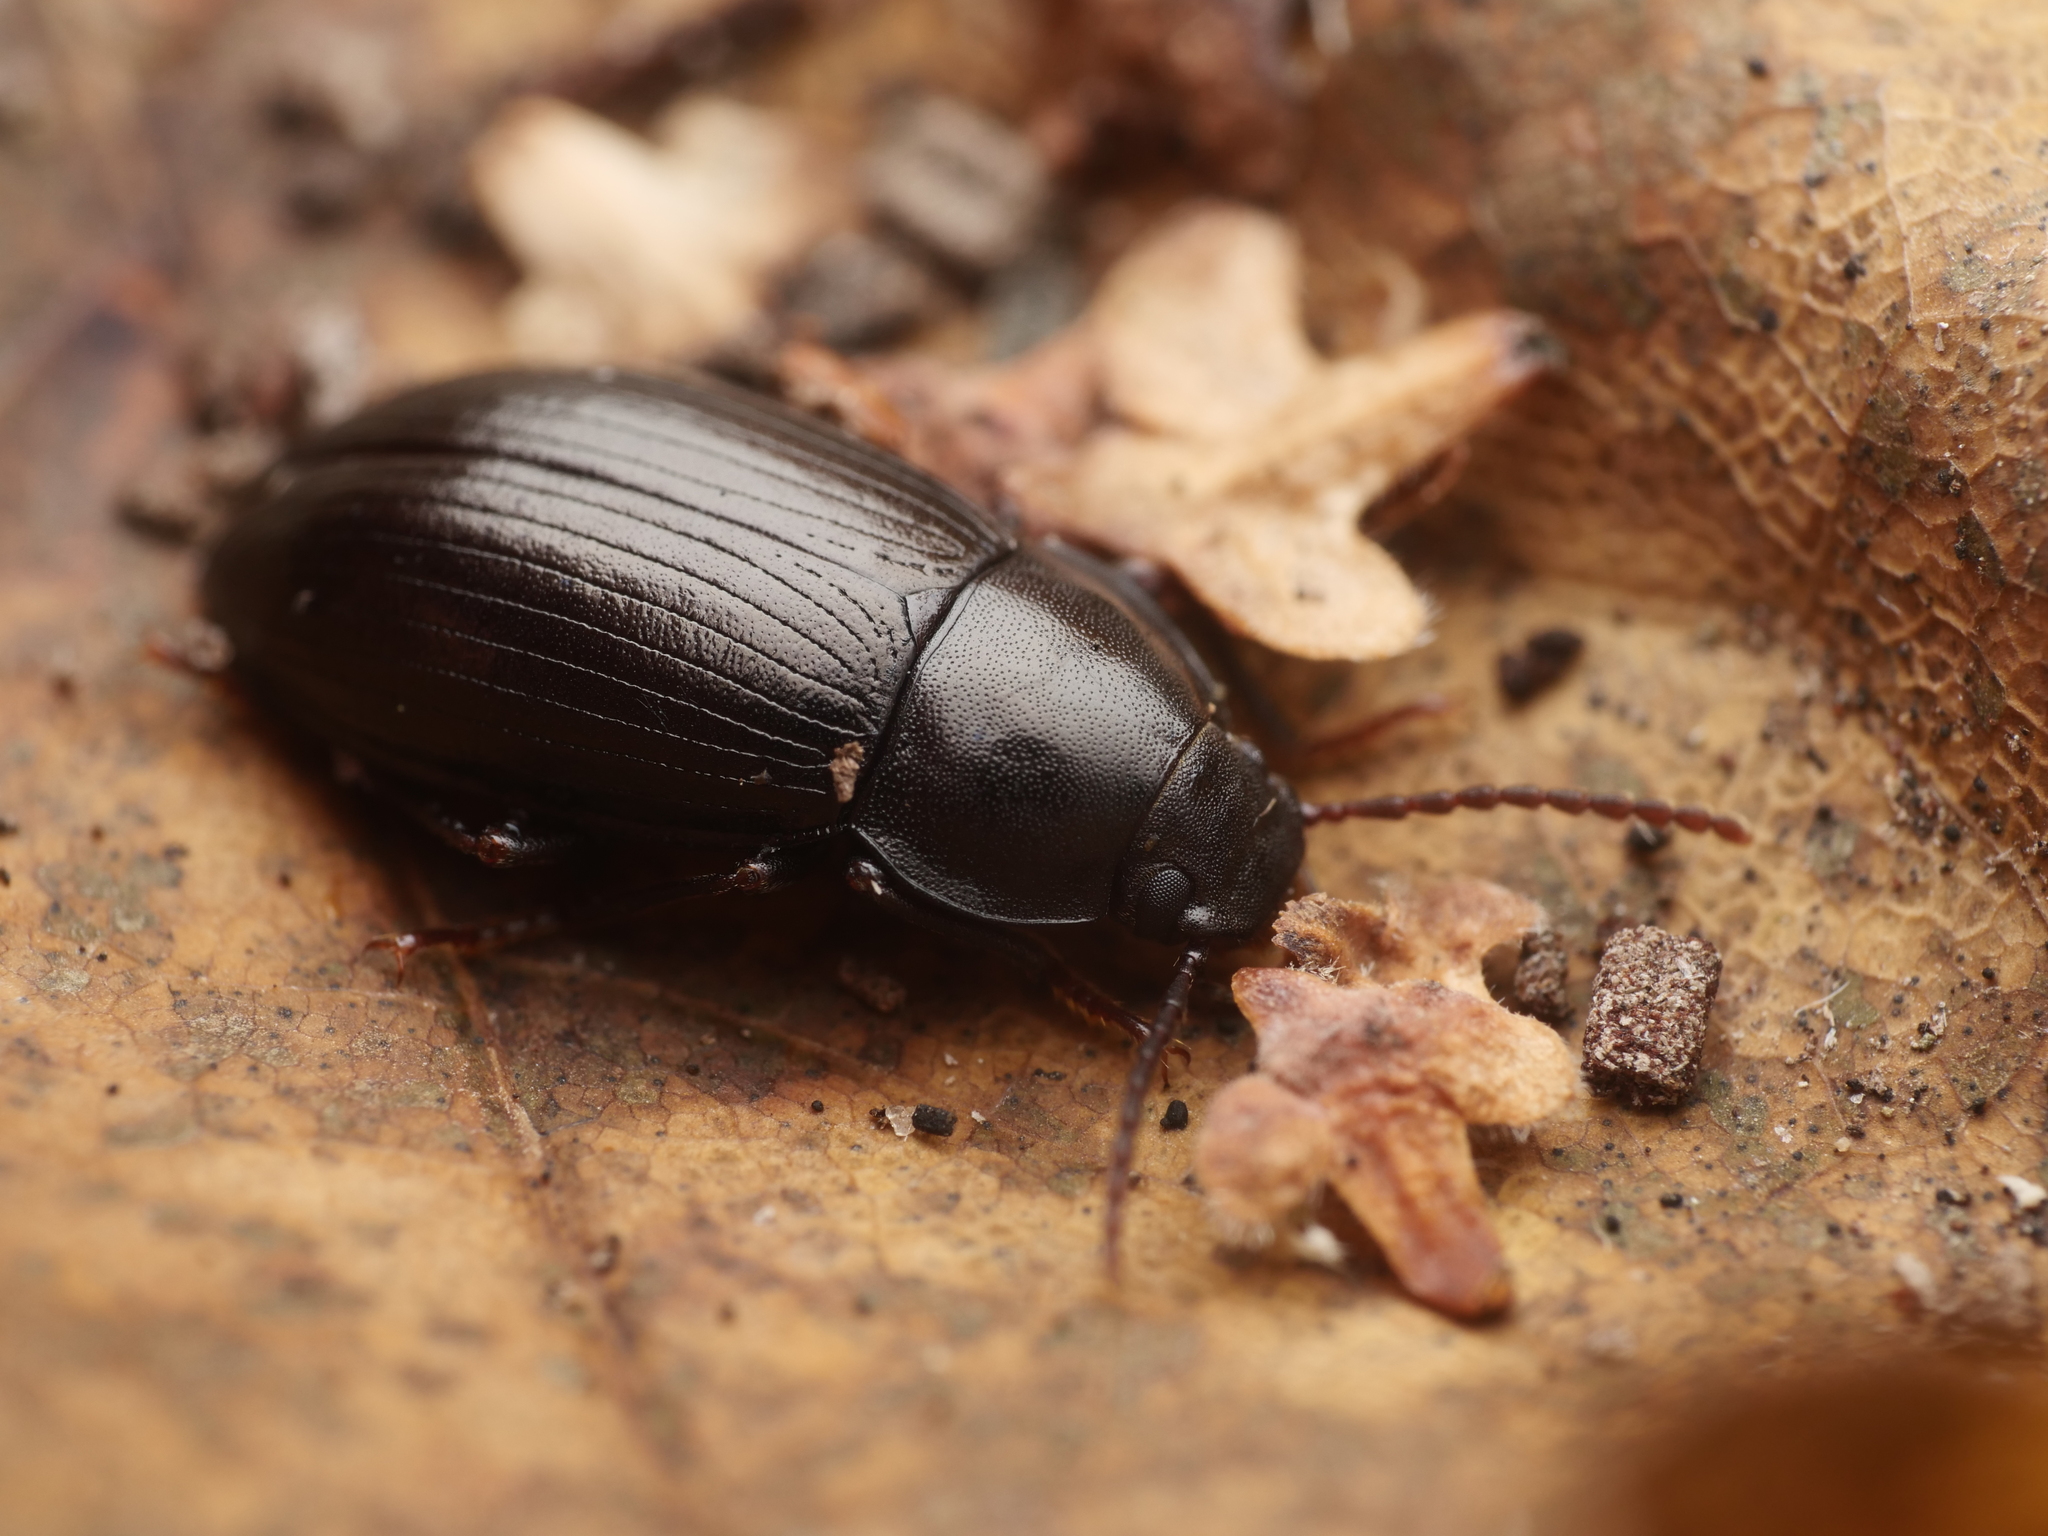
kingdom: Animalia
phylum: Arthropoda
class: Insecta
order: Coleoptera
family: Tenebrionidae
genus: Nalassus
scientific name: Nalassus dermestoides
